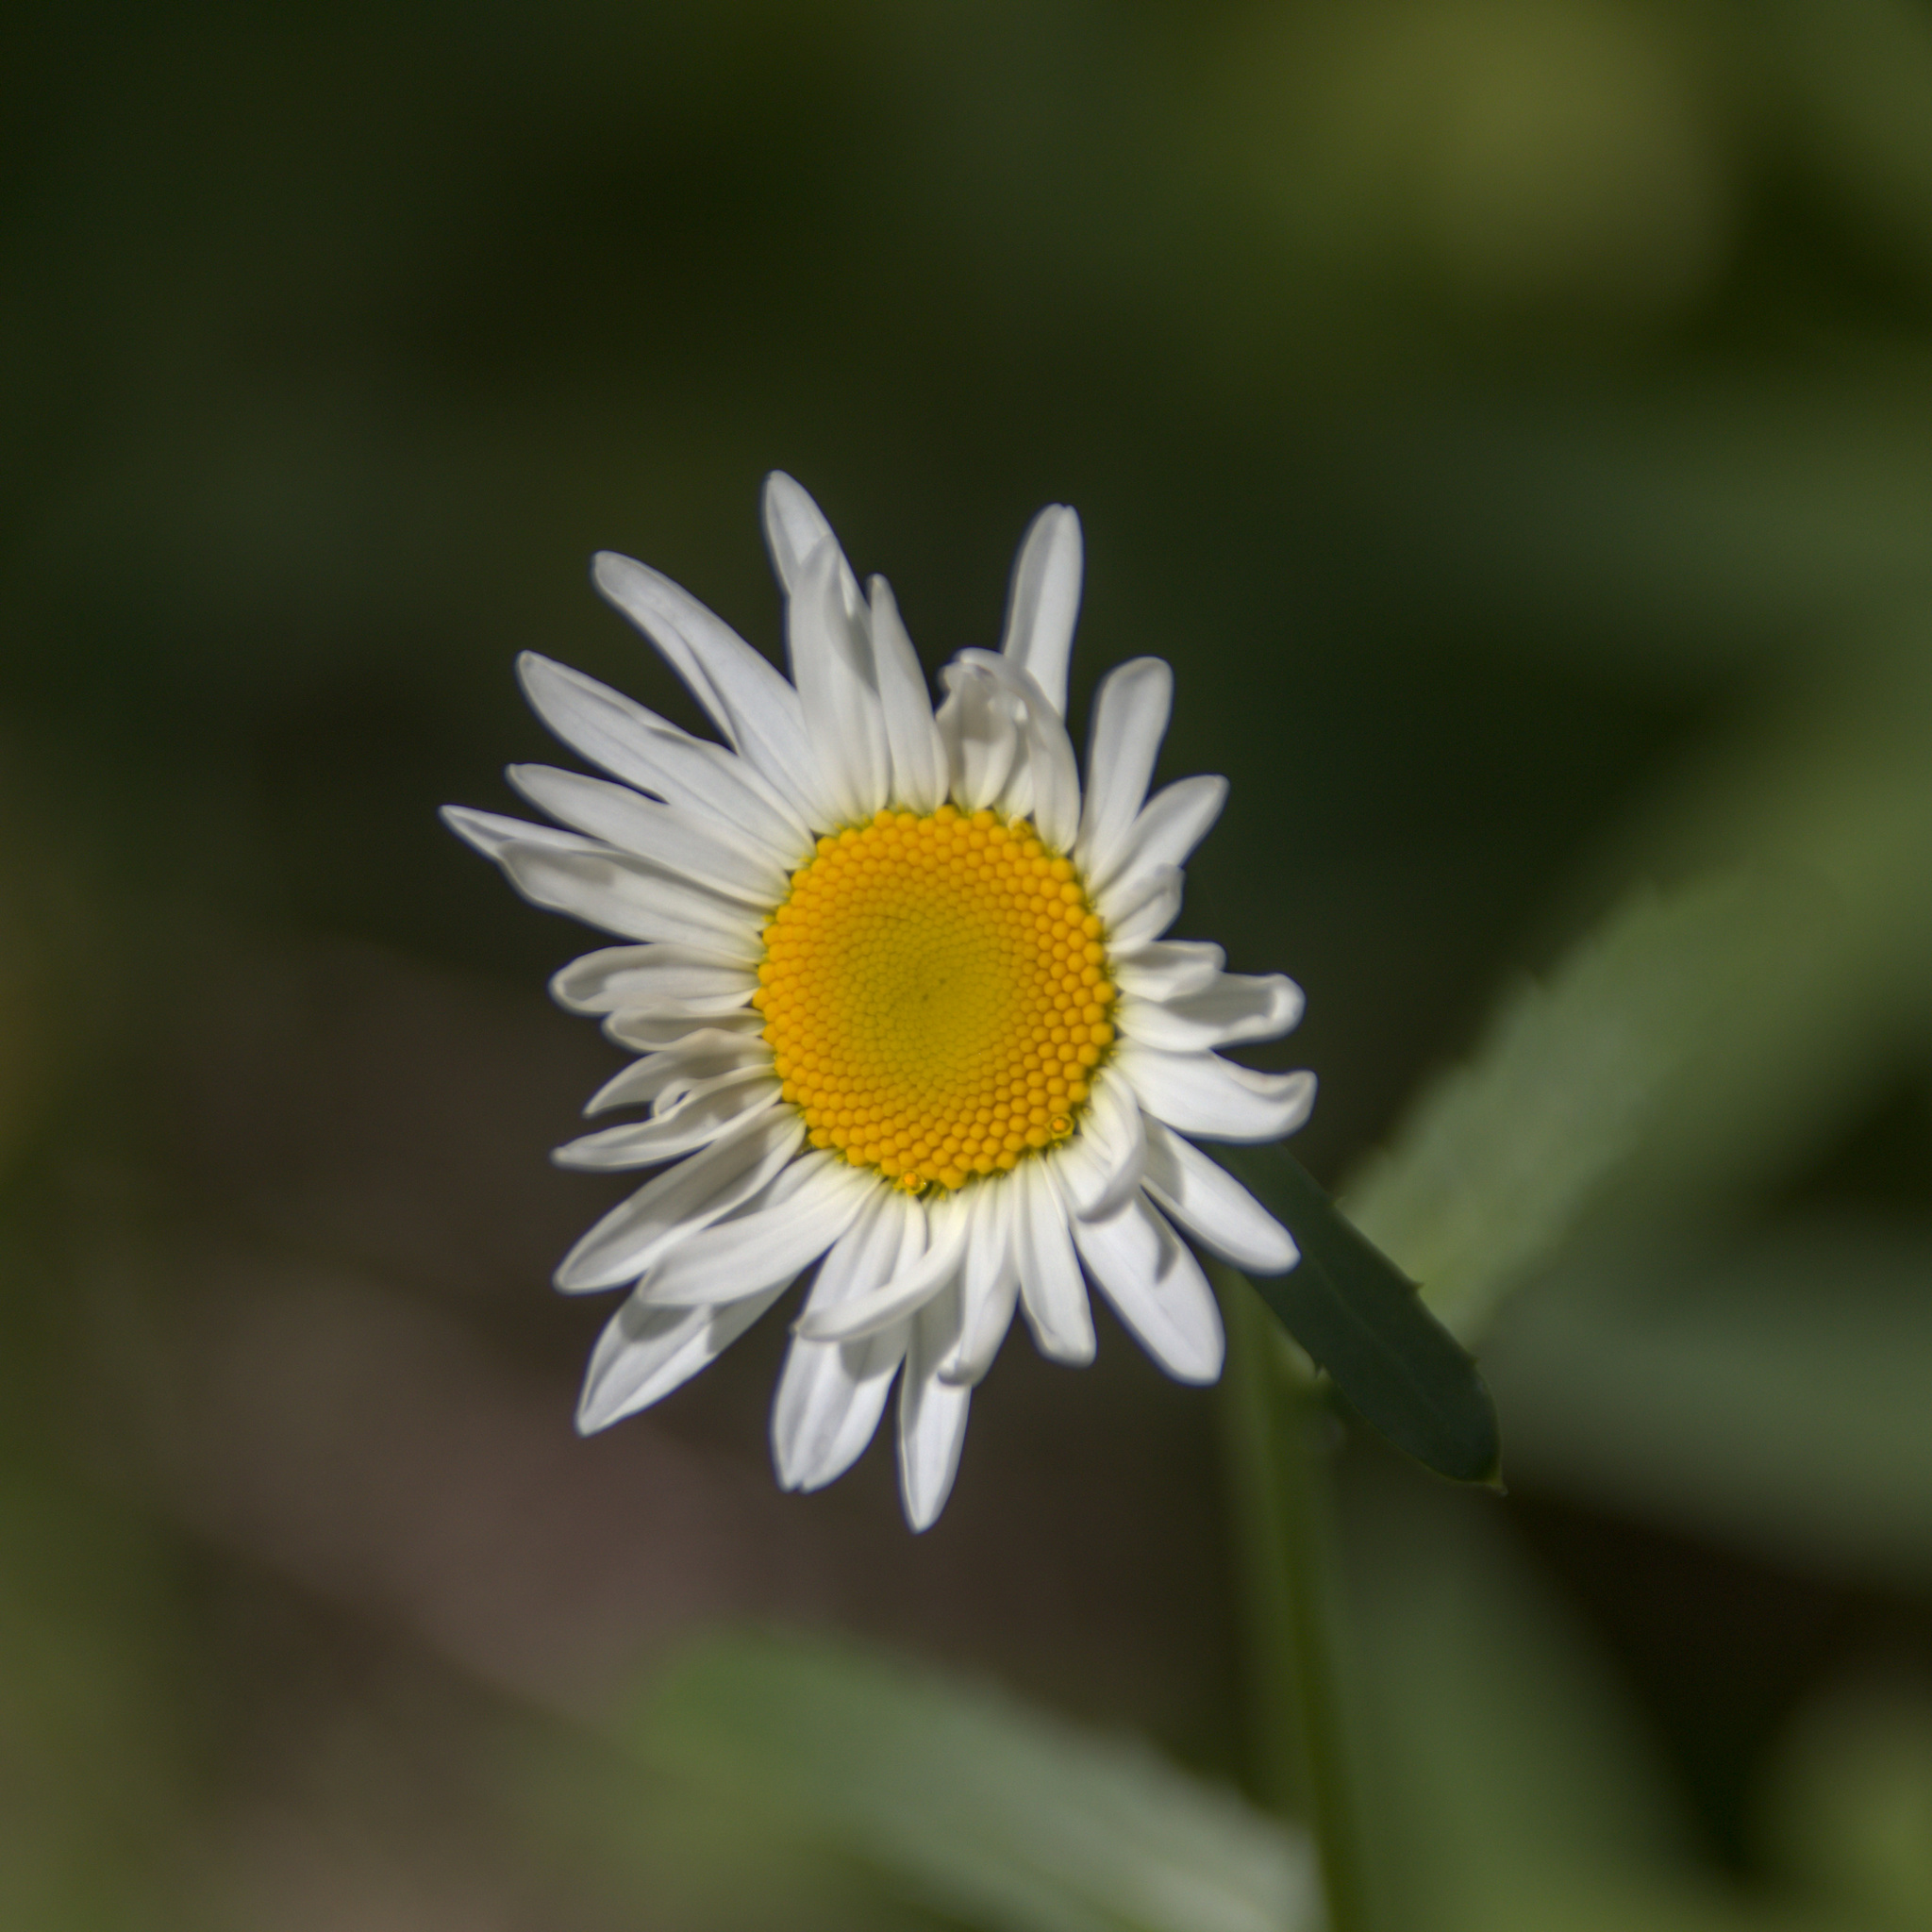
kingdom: Plantae
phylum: Tracheophyta
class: Magnoliopsida
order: Asterales
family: Asteraceae
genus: Leucanthemum
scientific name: Leucanthemum ircutianum
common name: Daisy
